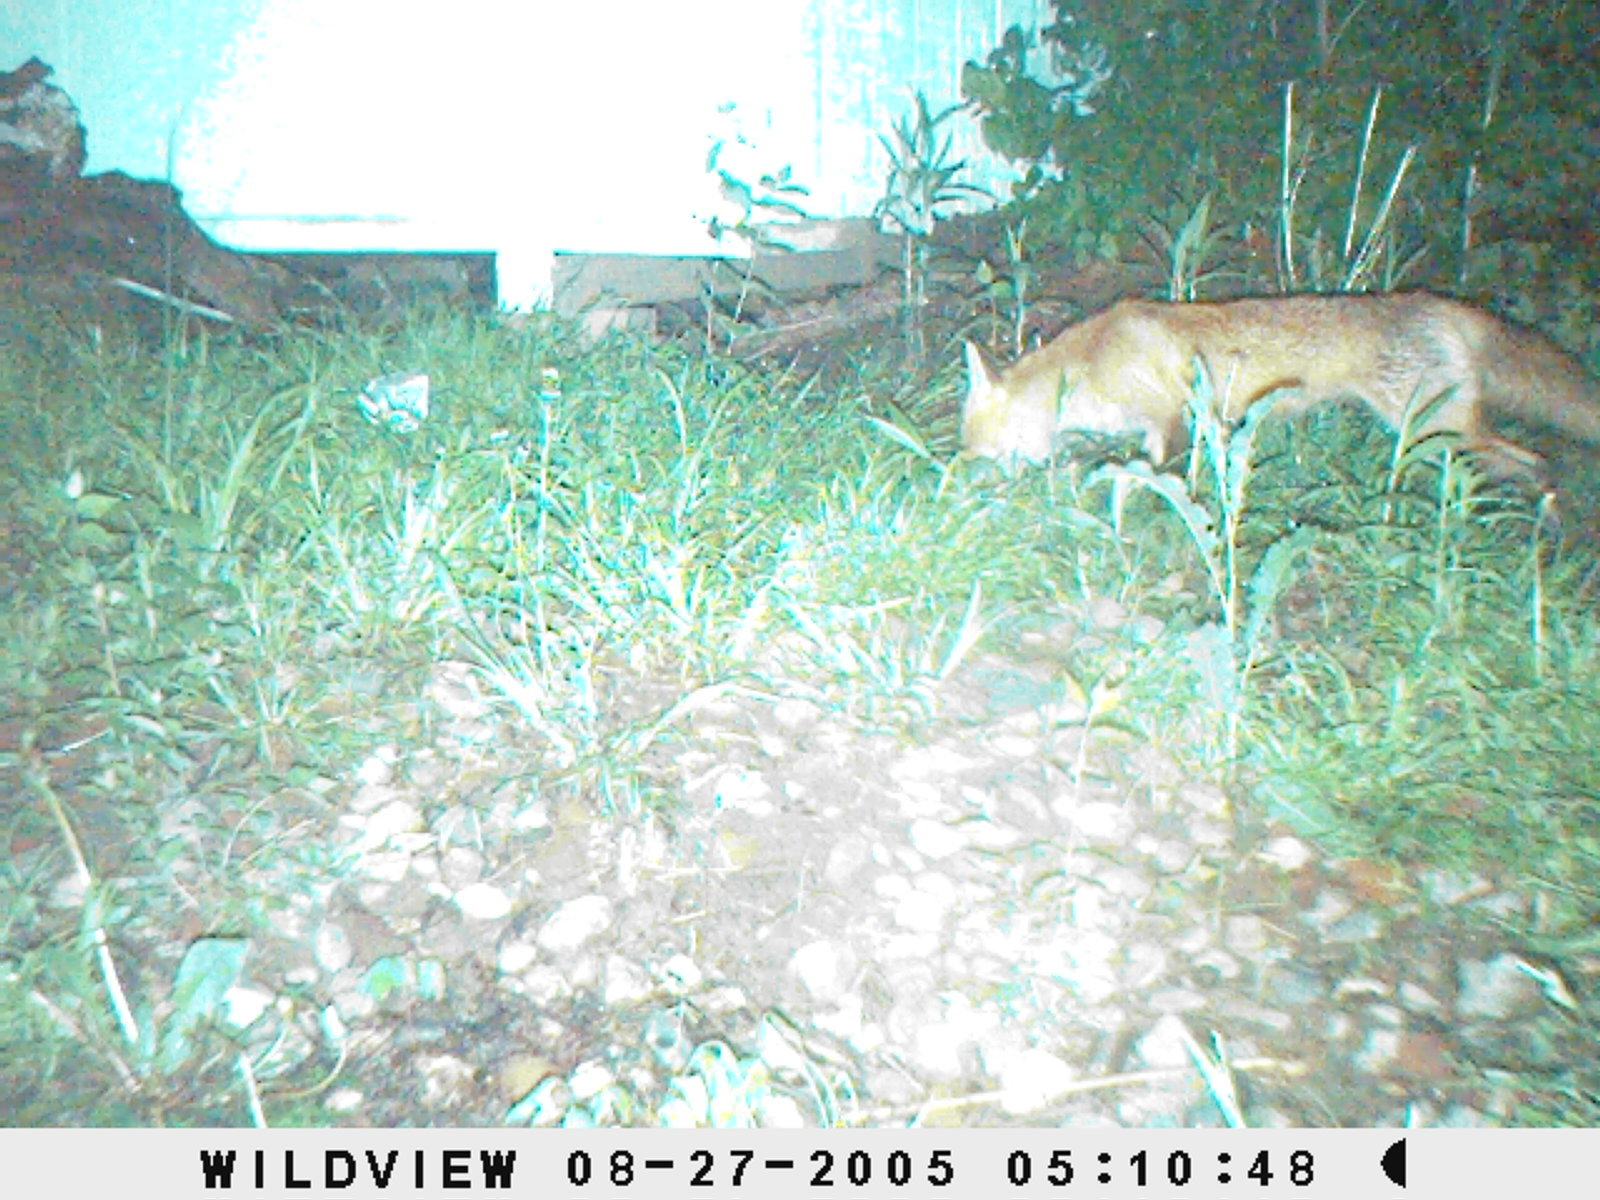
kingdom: Animalia
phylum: Chordata
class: Mammalia
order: Carnivora
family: Canidae
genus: Vulpes
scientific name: Vulpes vulpes
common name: Red fox
